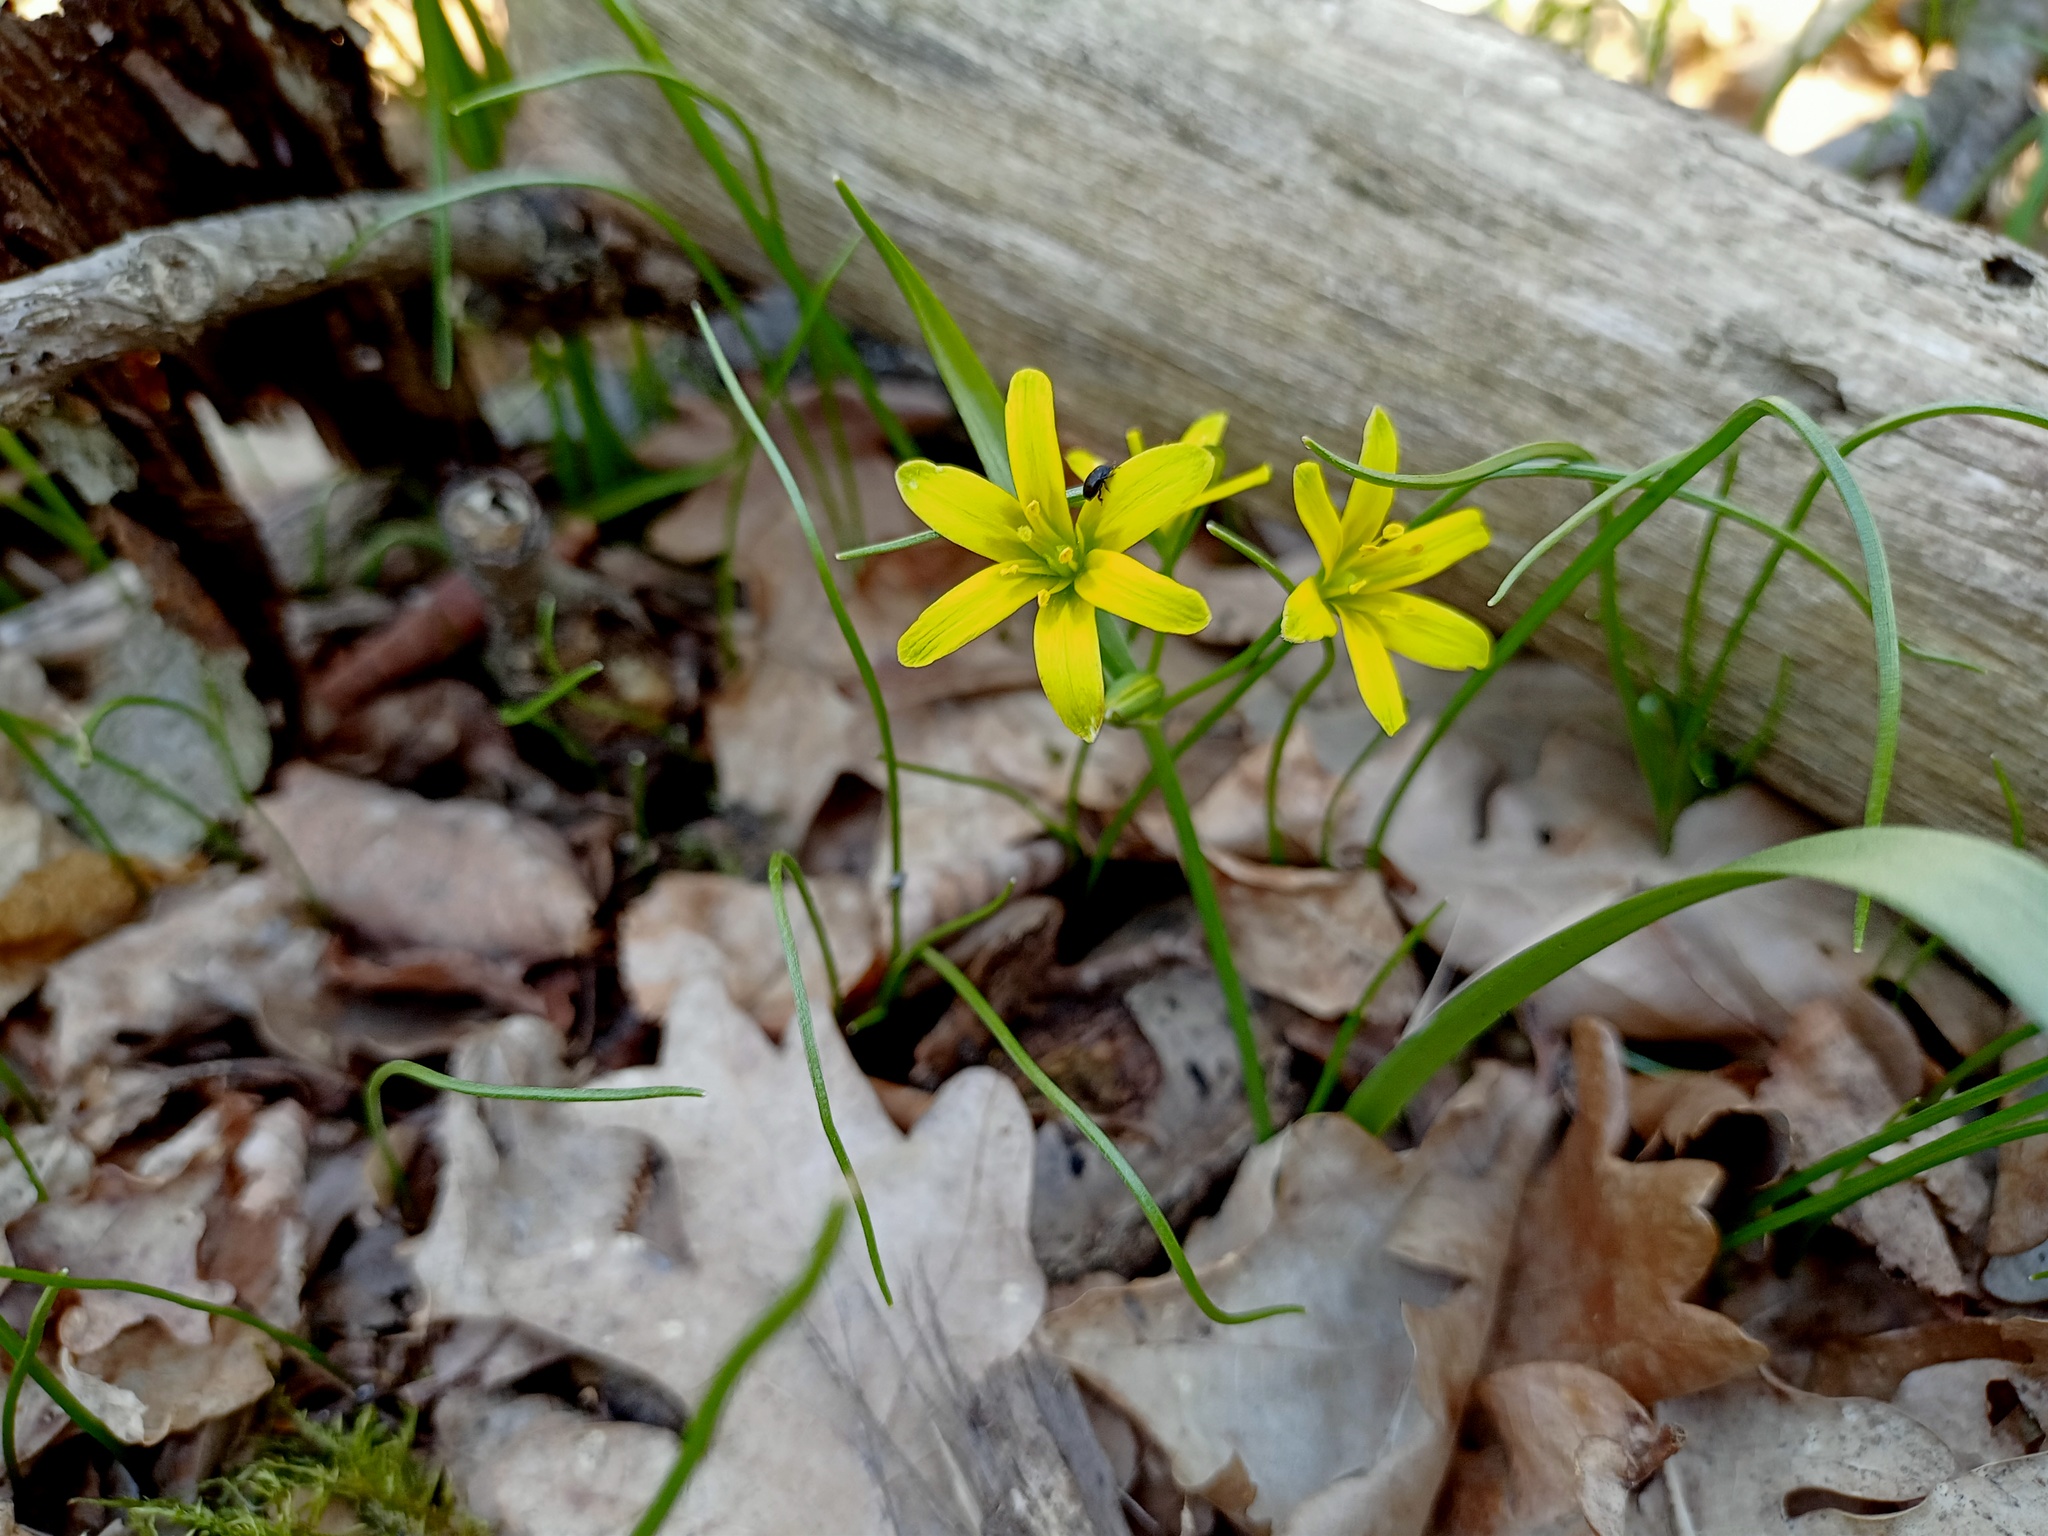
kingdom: Plantae
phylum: Tracheophyta
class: Liliopsida
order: Liliales
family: Liliaceae
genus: Gagea
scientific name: Gagea lutea
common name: Yellow star-of-bethlehem
